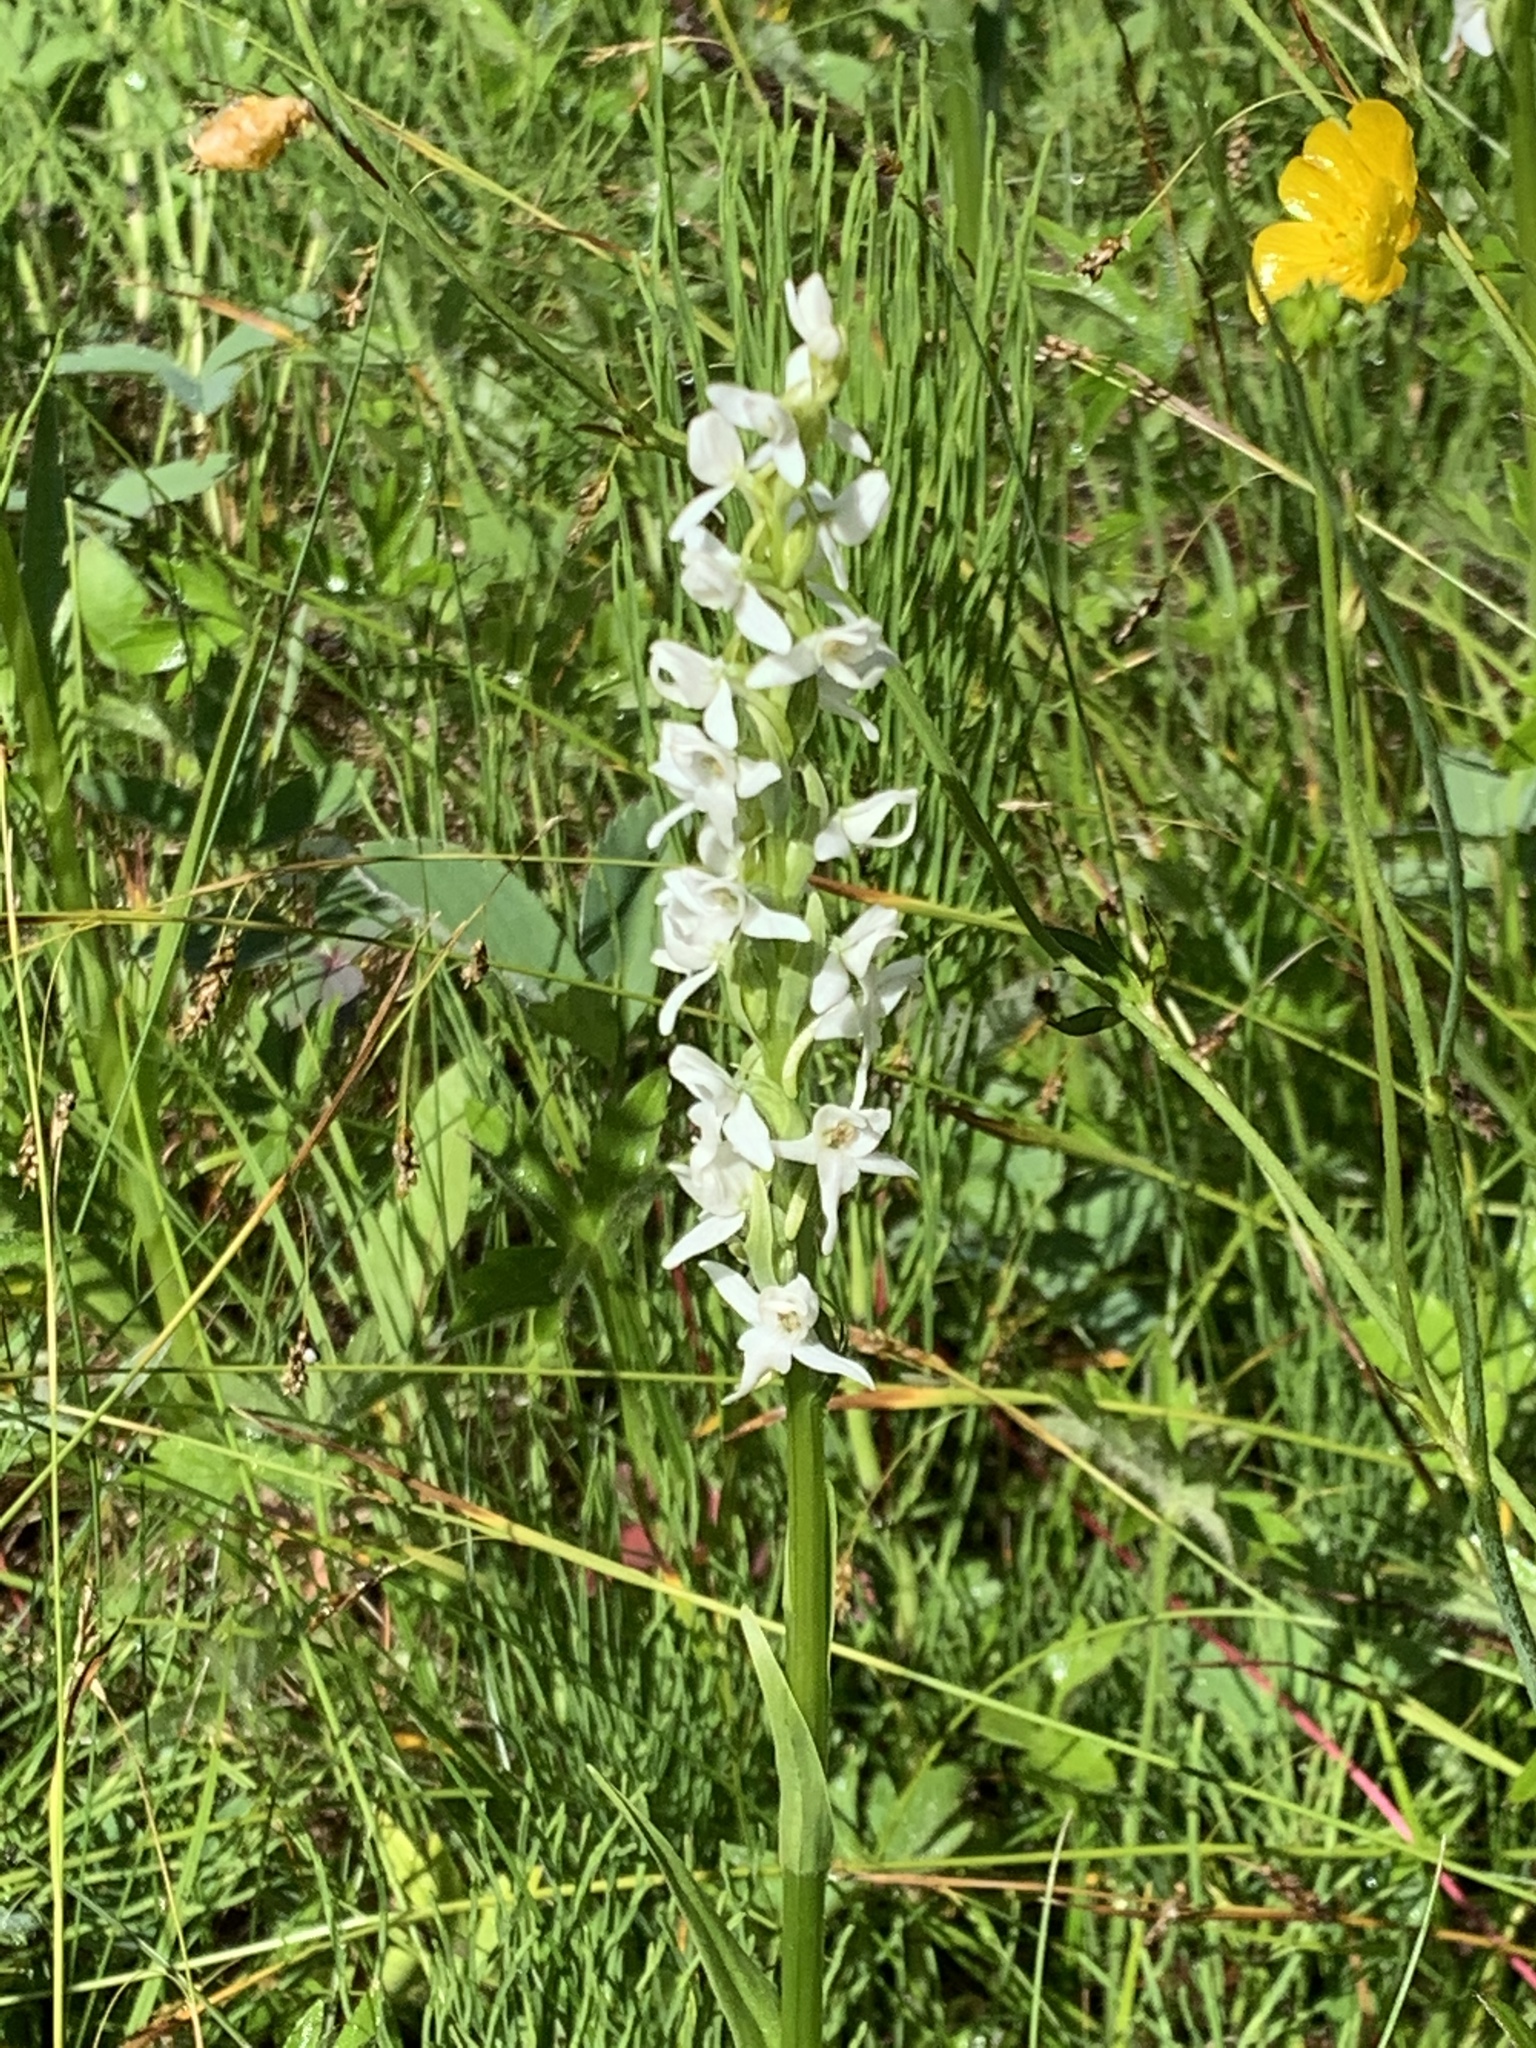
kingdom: Plantae
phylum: Tracheophyta
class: Liliopsida
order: Asparagales
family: Orchidaceae
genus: Platanthera
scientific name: Platanthera dilatata
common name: Bog candles
